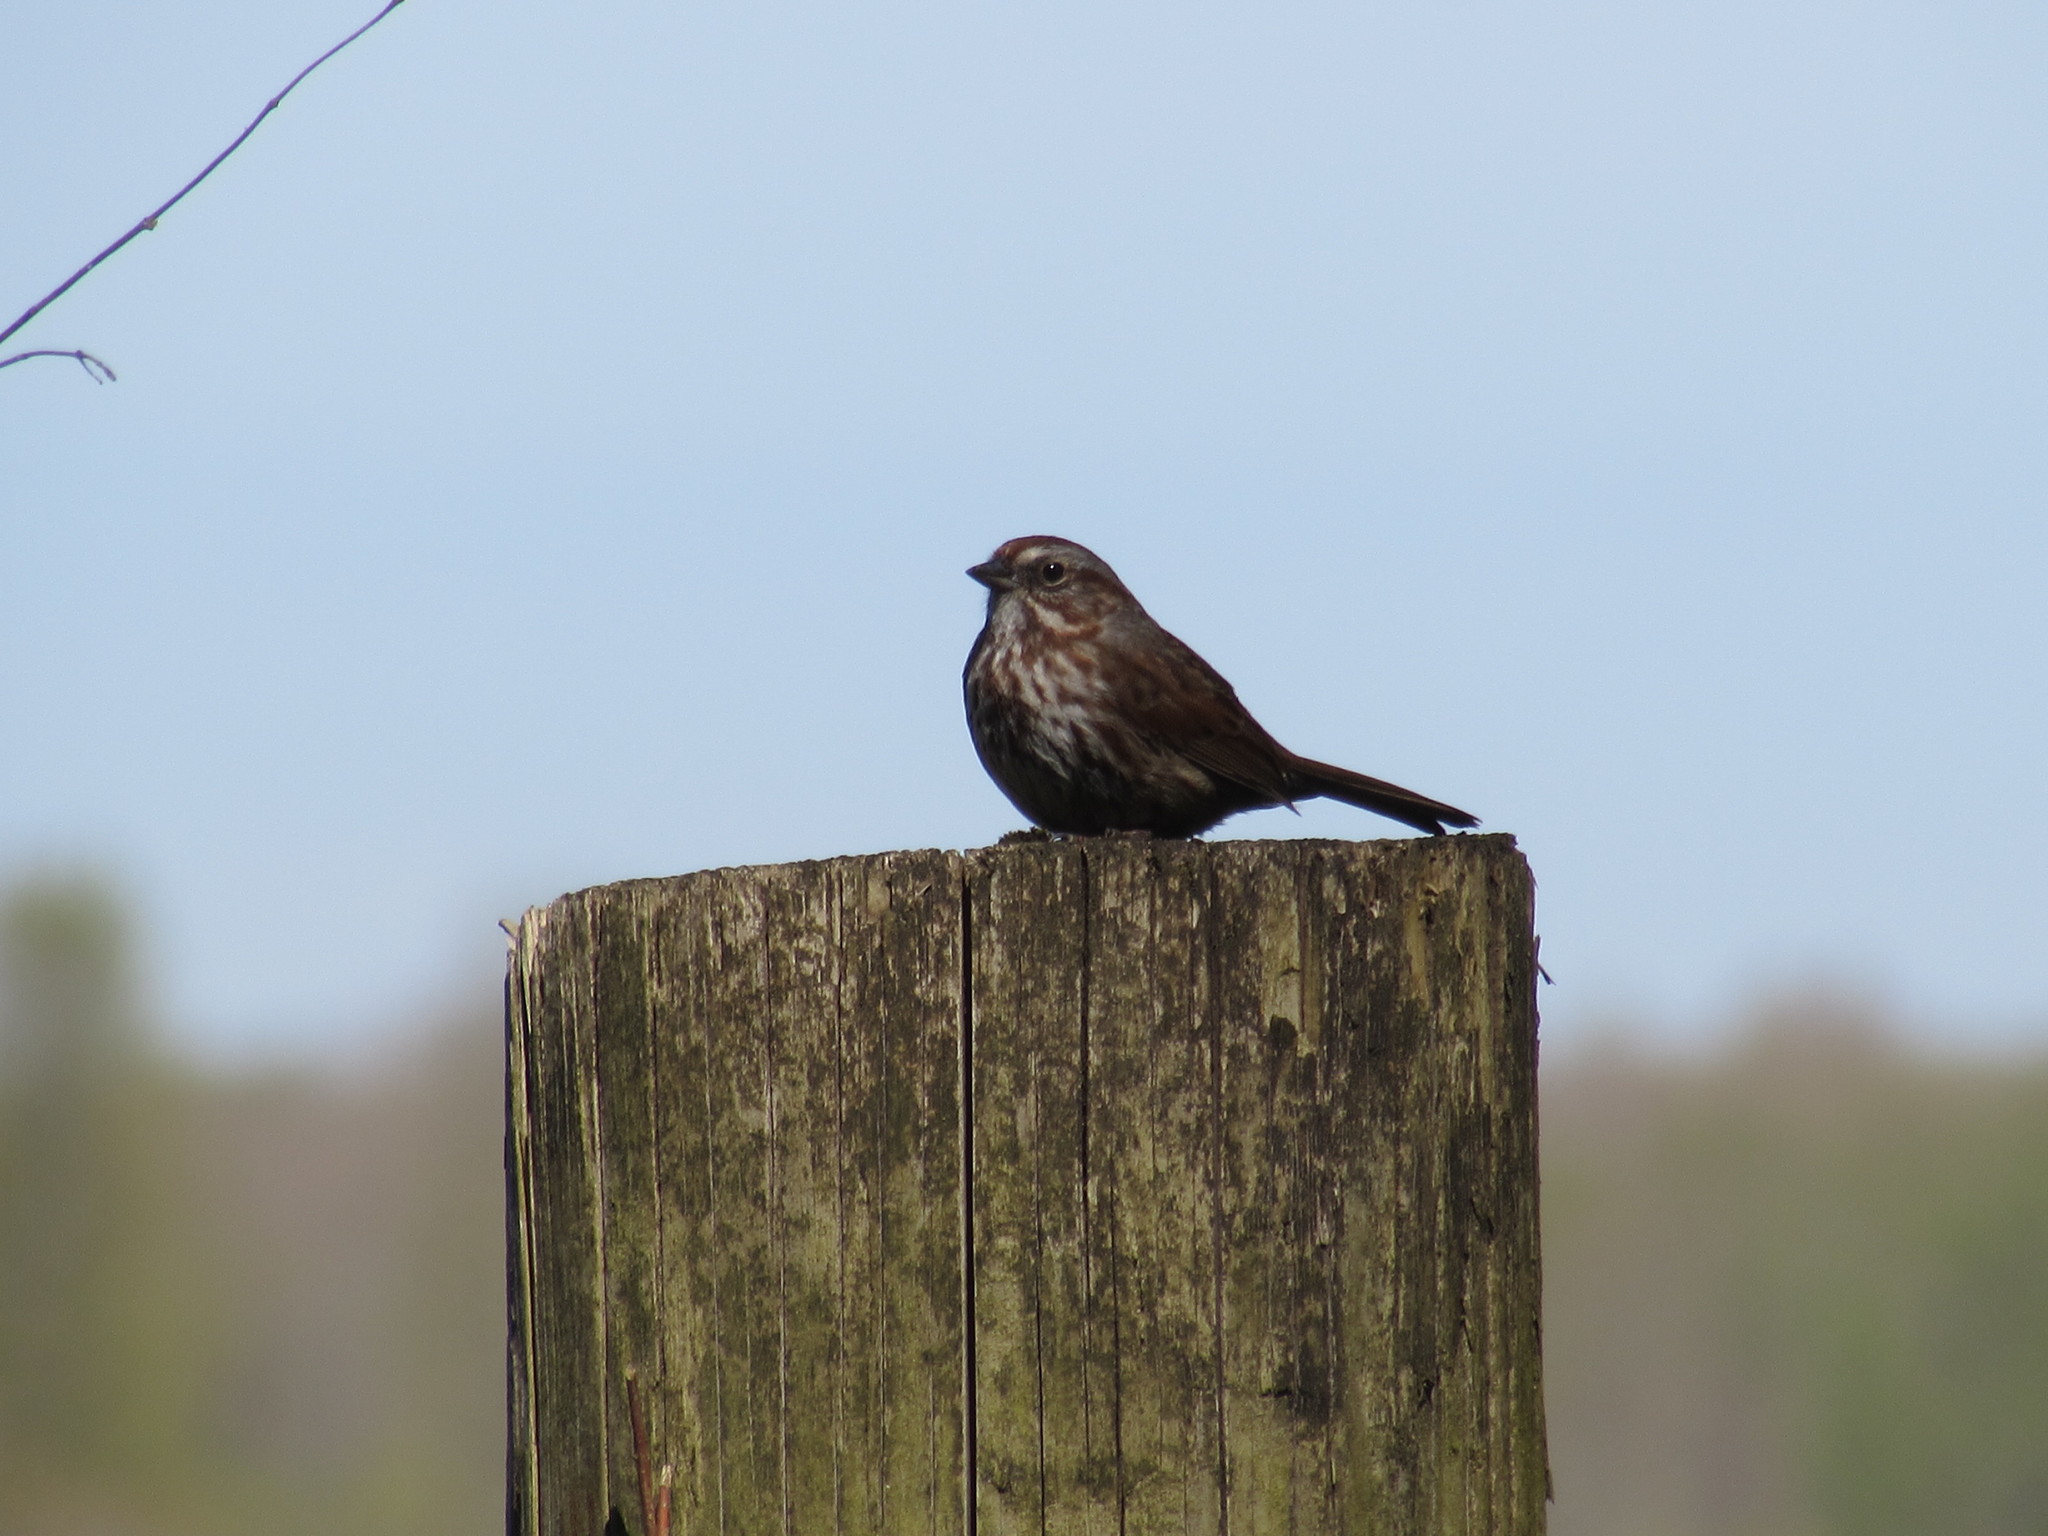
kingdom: Animalia
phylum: Chordata
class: Aves
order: Passeriformes
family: Passerellidae
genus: Melospiza
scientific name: Melospiza melodia
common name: Song sparrow
